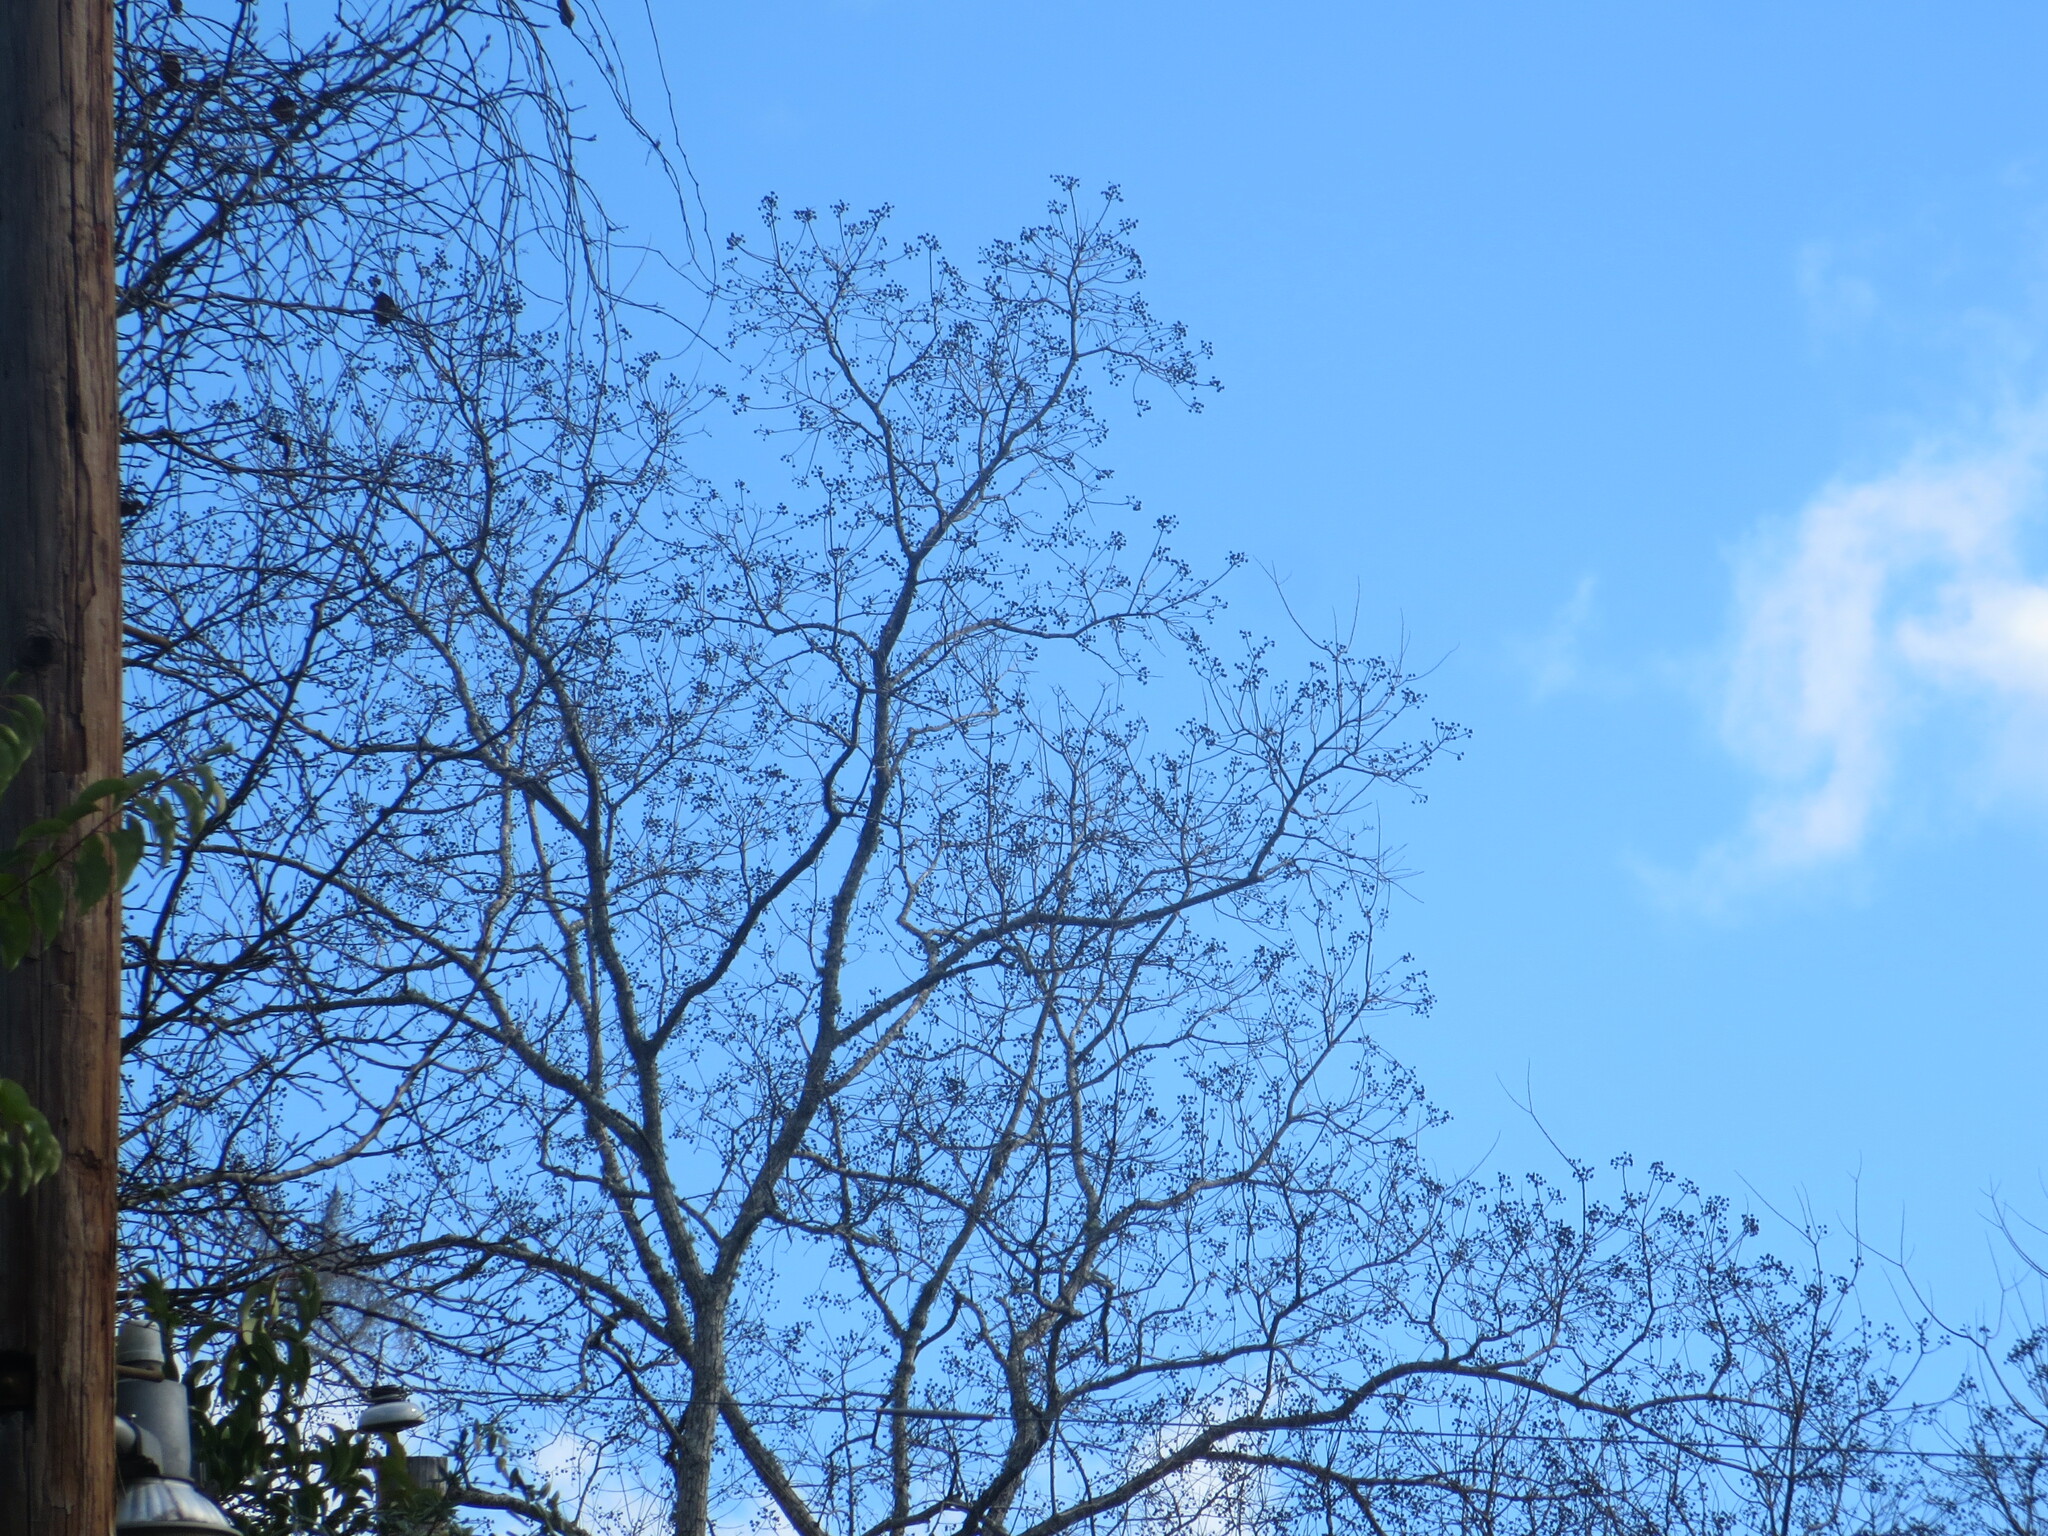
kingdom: Plantae
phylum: Tracheophyta
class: Magnoliopsida
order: Malpighiales
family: Euphorbiaceae
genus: Triadica
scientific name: Triadica sebifera
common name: Chinese tallow
